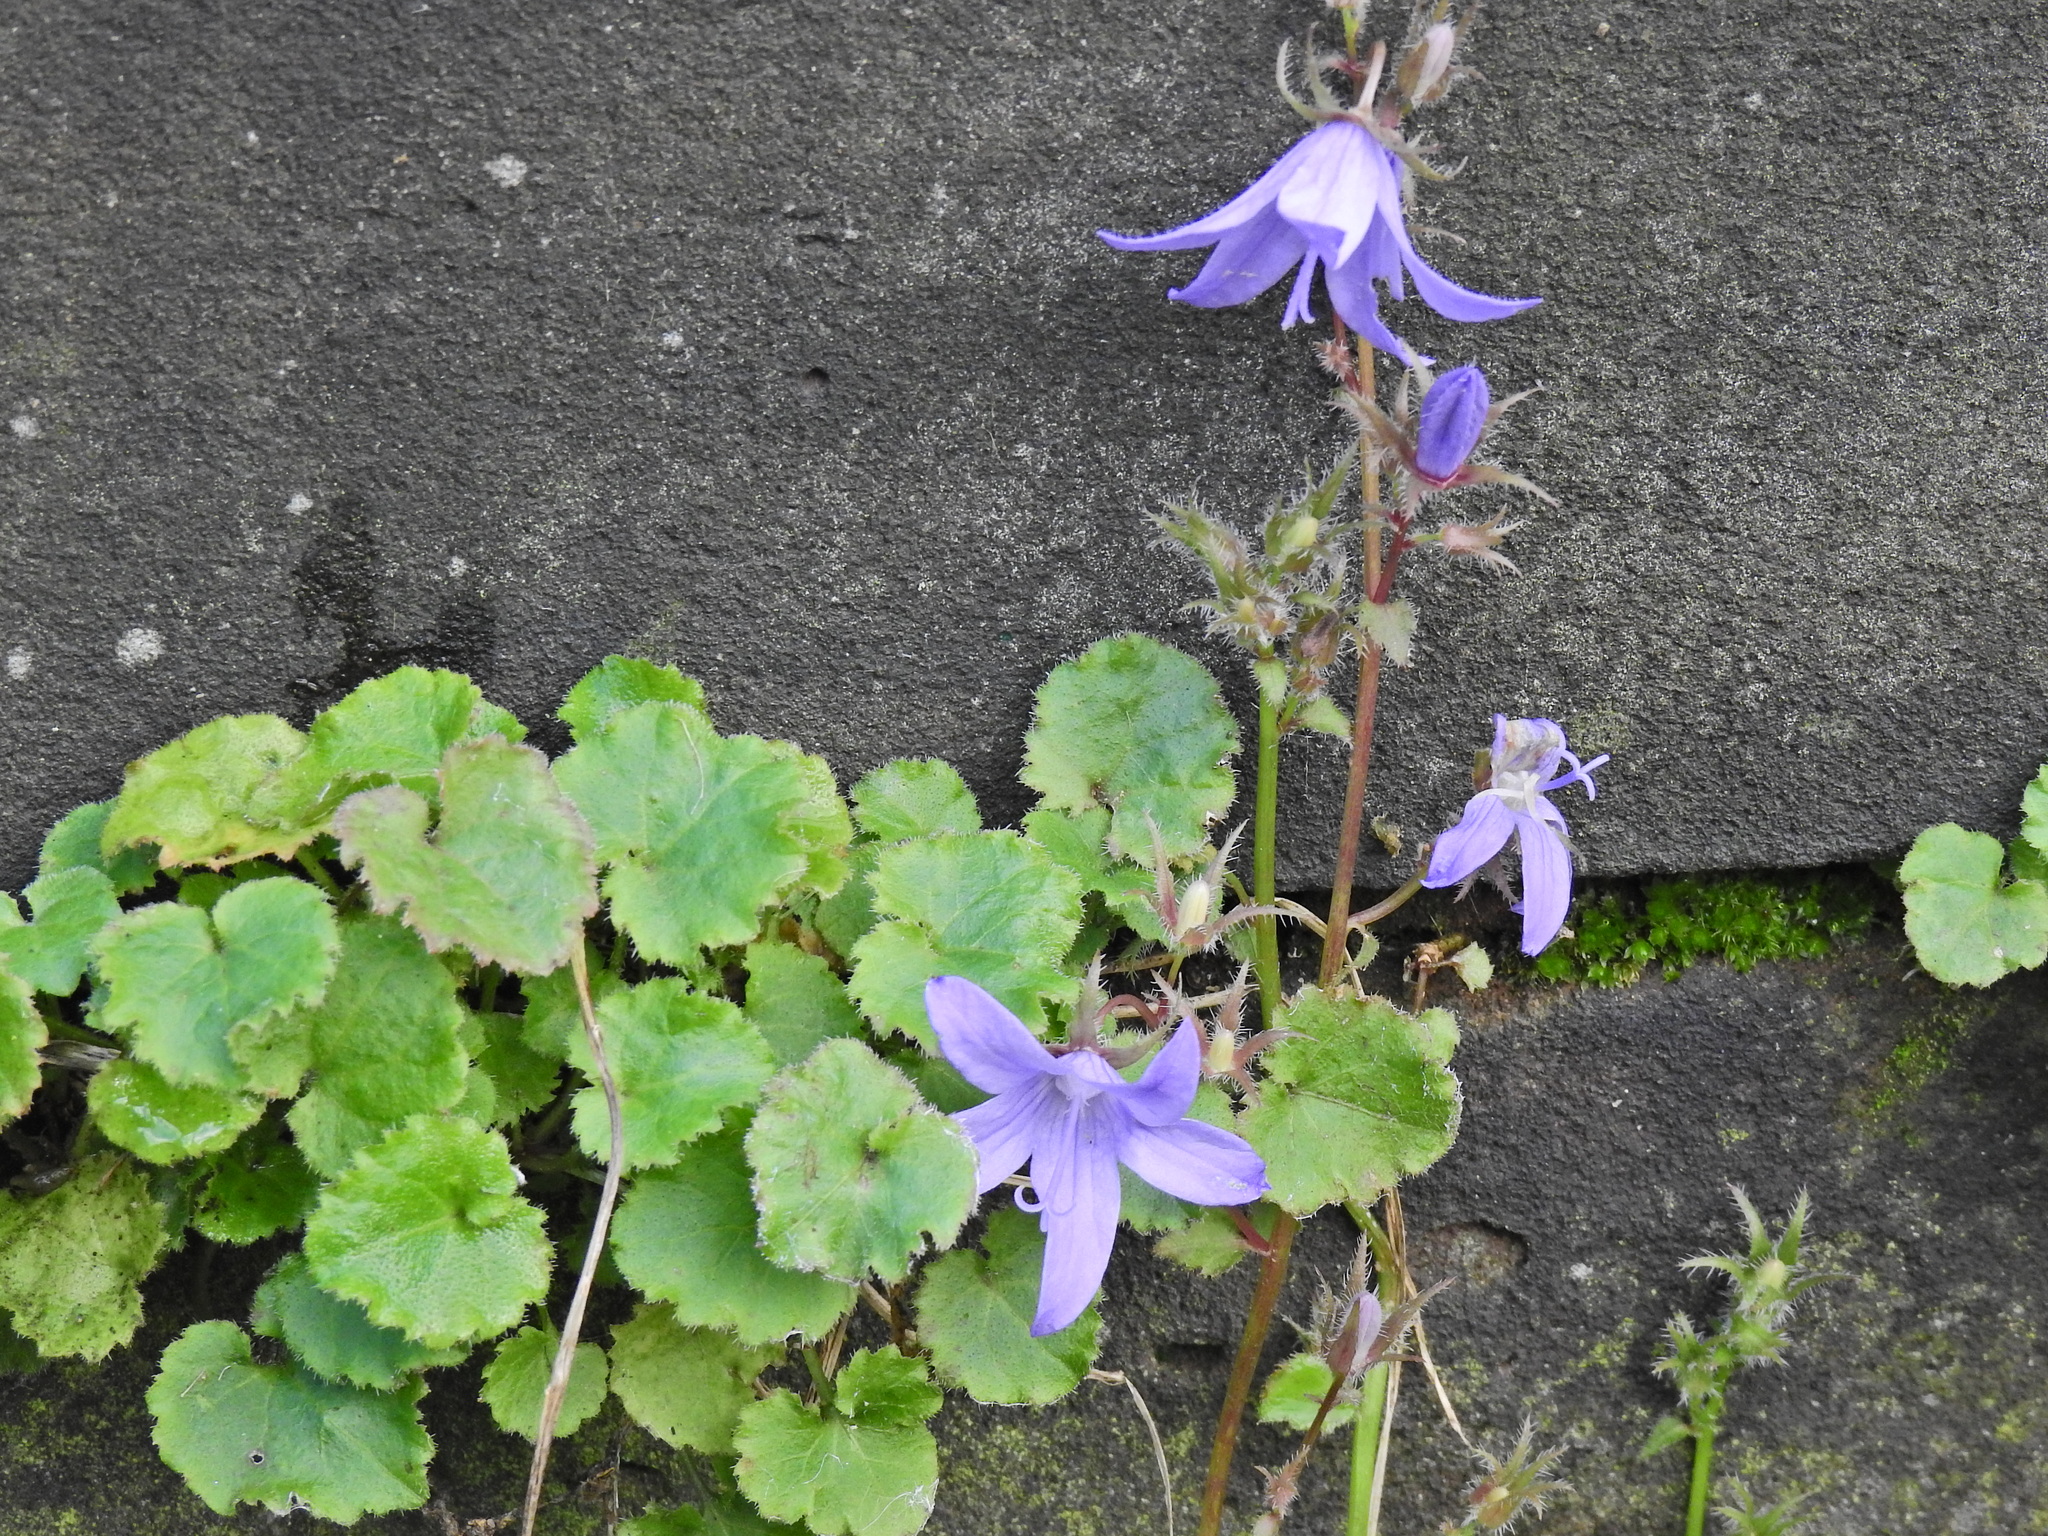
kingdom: Plantae
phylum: Tracheophyta
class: Magnoliopsida
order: Asterales
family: Campanulaceae
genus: Campanula
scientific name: Campanula poscharskyana
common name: Trailing bellflower
